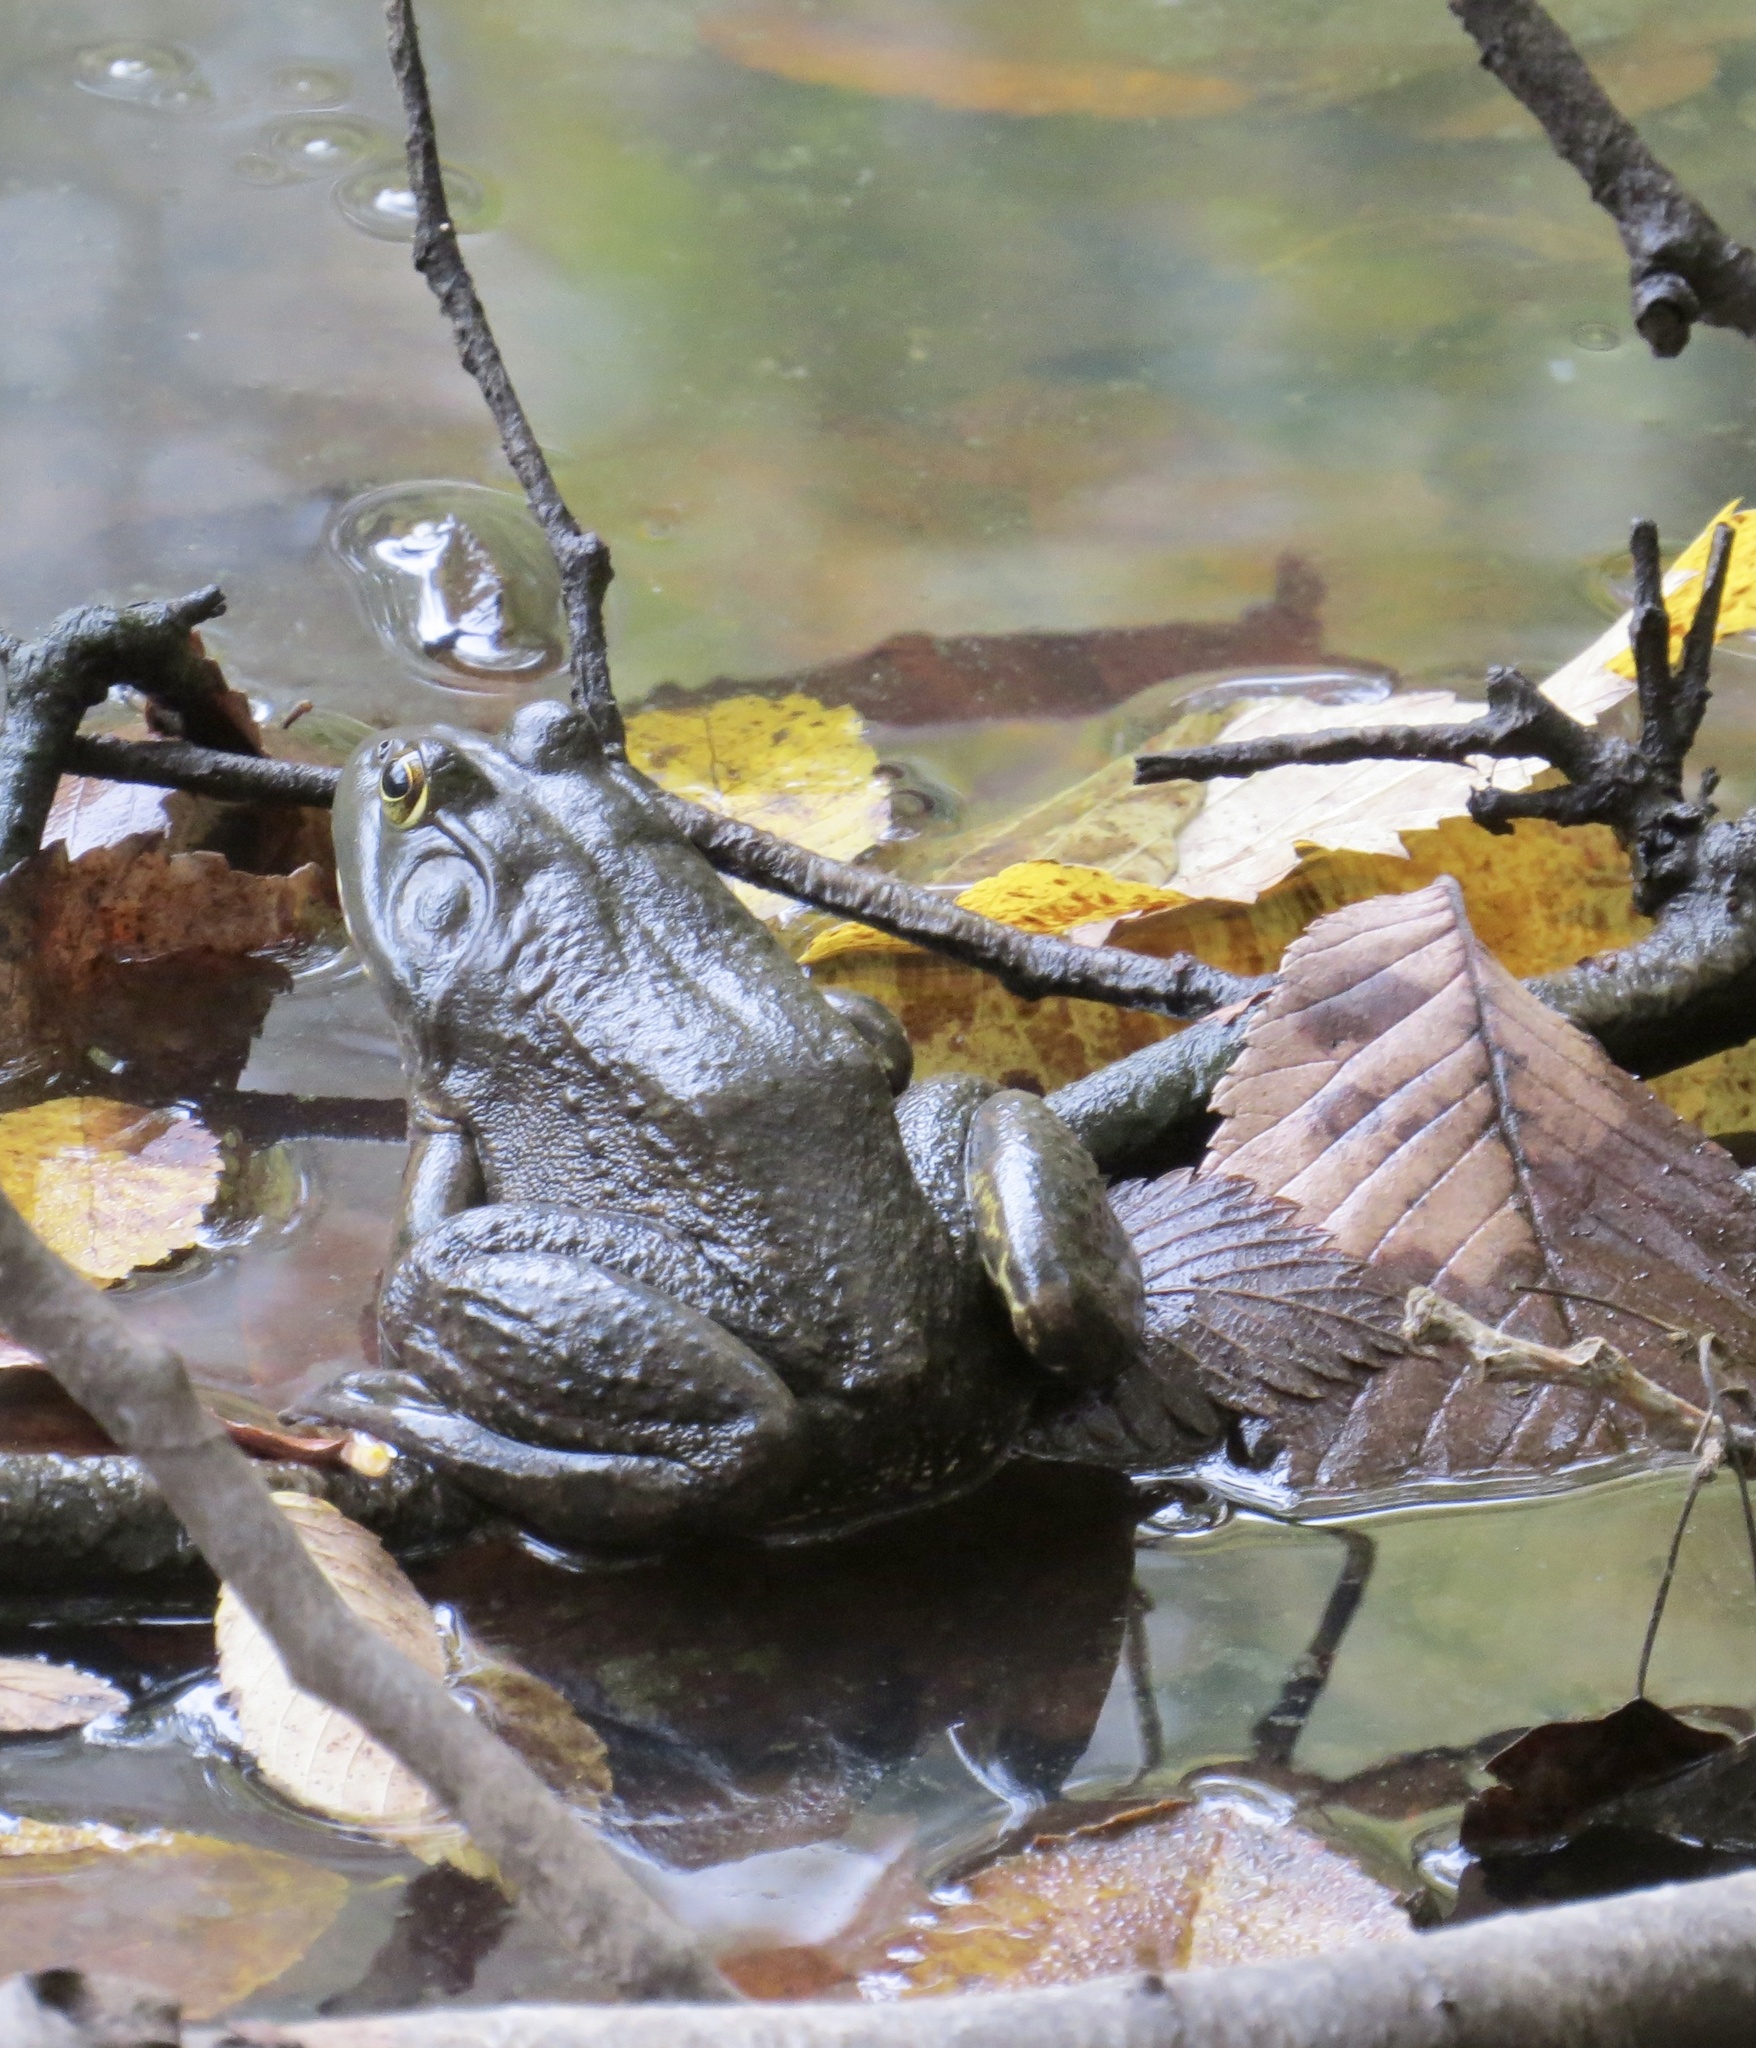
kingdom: Animalia
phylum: Chordata
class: Amphibia
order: Anura
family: Ranidae
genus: Lithobates
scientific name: Lithobates catesbeianus
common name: American bullfrog
